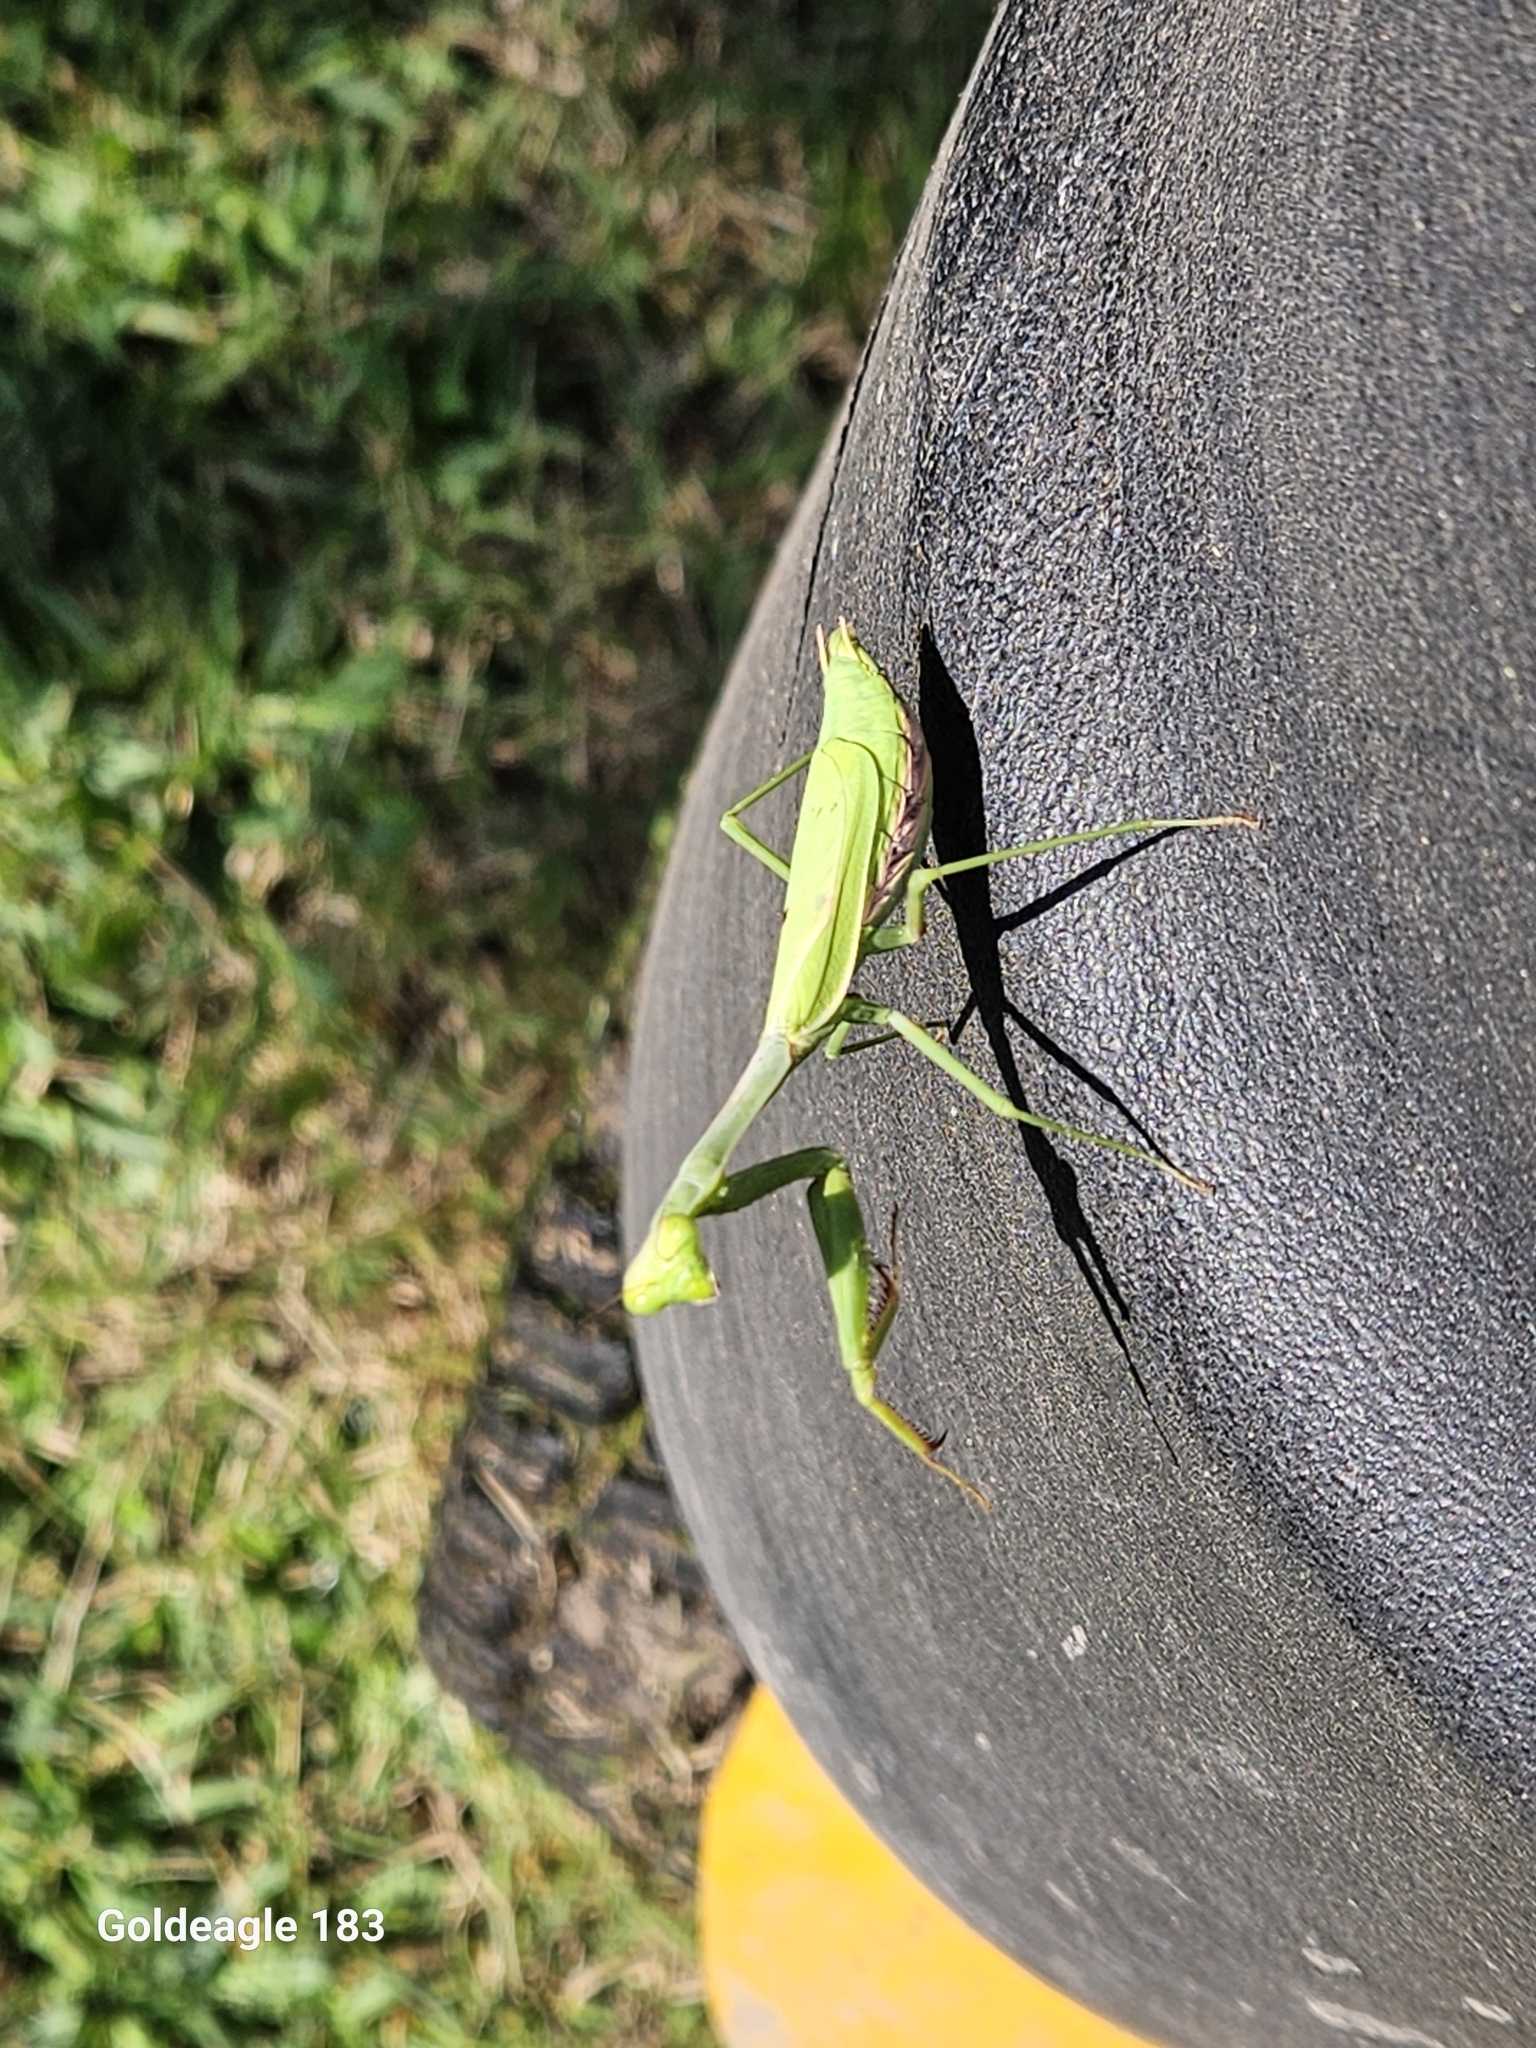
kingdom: Animalia
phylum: Arthropoda
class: Insecta
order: Mantodea
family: Mantidae
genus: Stagmomantis
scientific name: Stagmomantis carolina
